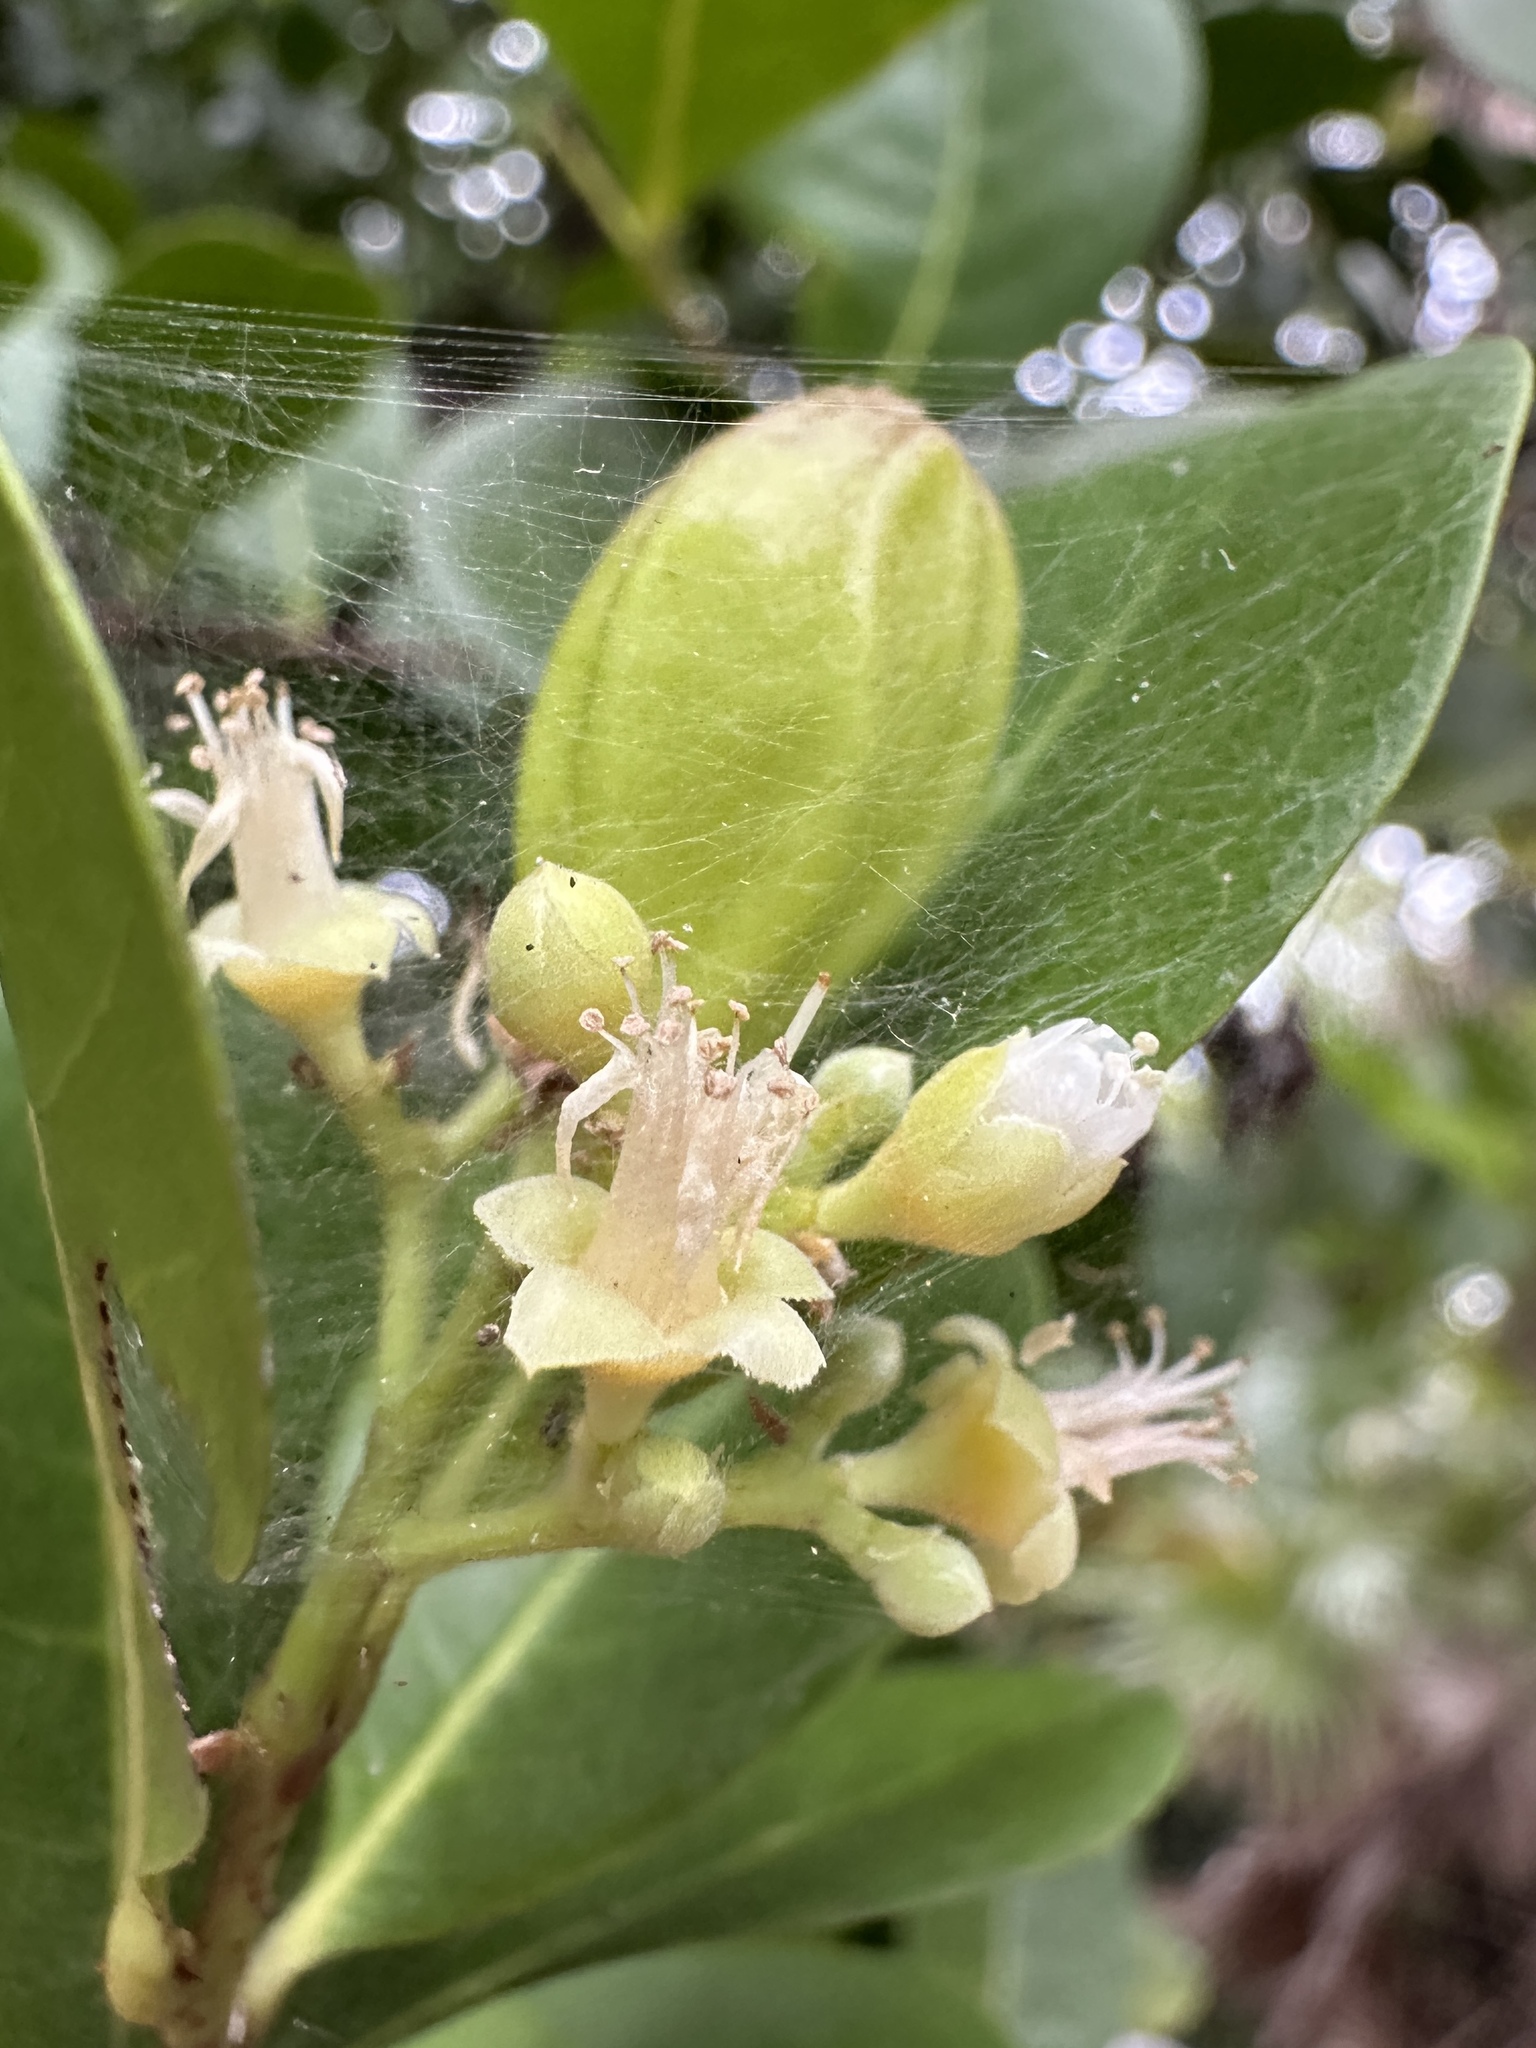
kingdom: Plantae
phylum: Tracheophyta
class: Magnoliopsida
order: Malpighiales
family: Chrysobalanaceae
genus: Chrysobalanus
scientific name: Chrysobalanus icaco
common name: Coco plum
